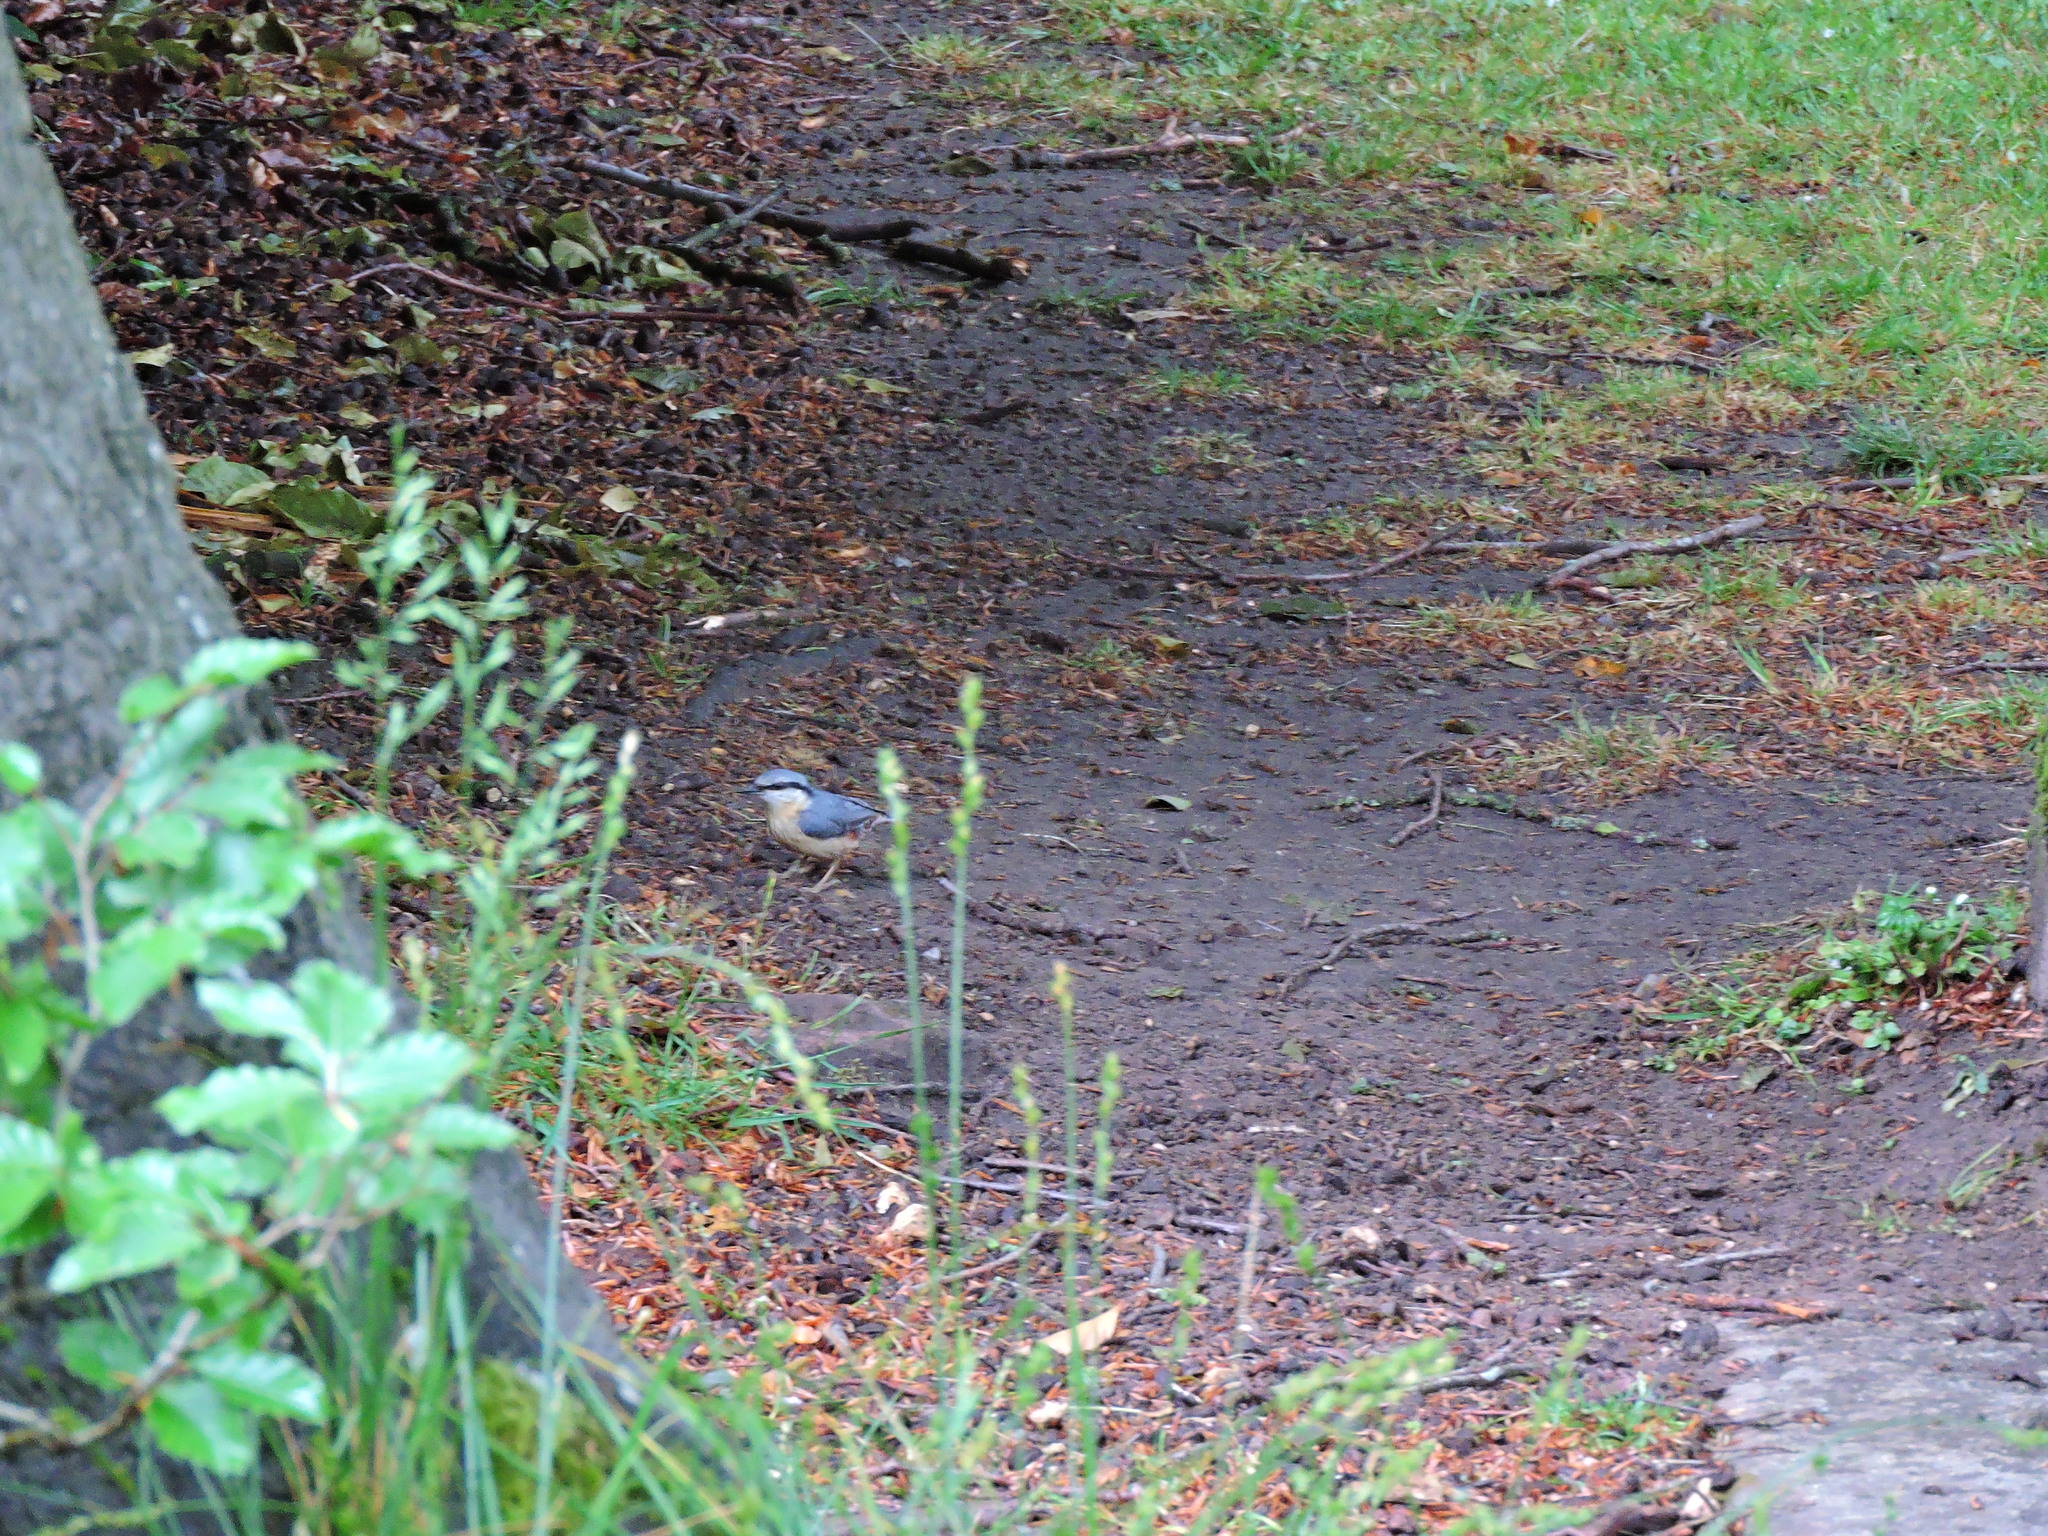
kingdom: Animalia
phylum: Chordata
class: Aves
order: Passeriformes
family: Sittidae
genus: Sitta
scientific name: Sitta europaea
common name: Eurasian nuthatch
